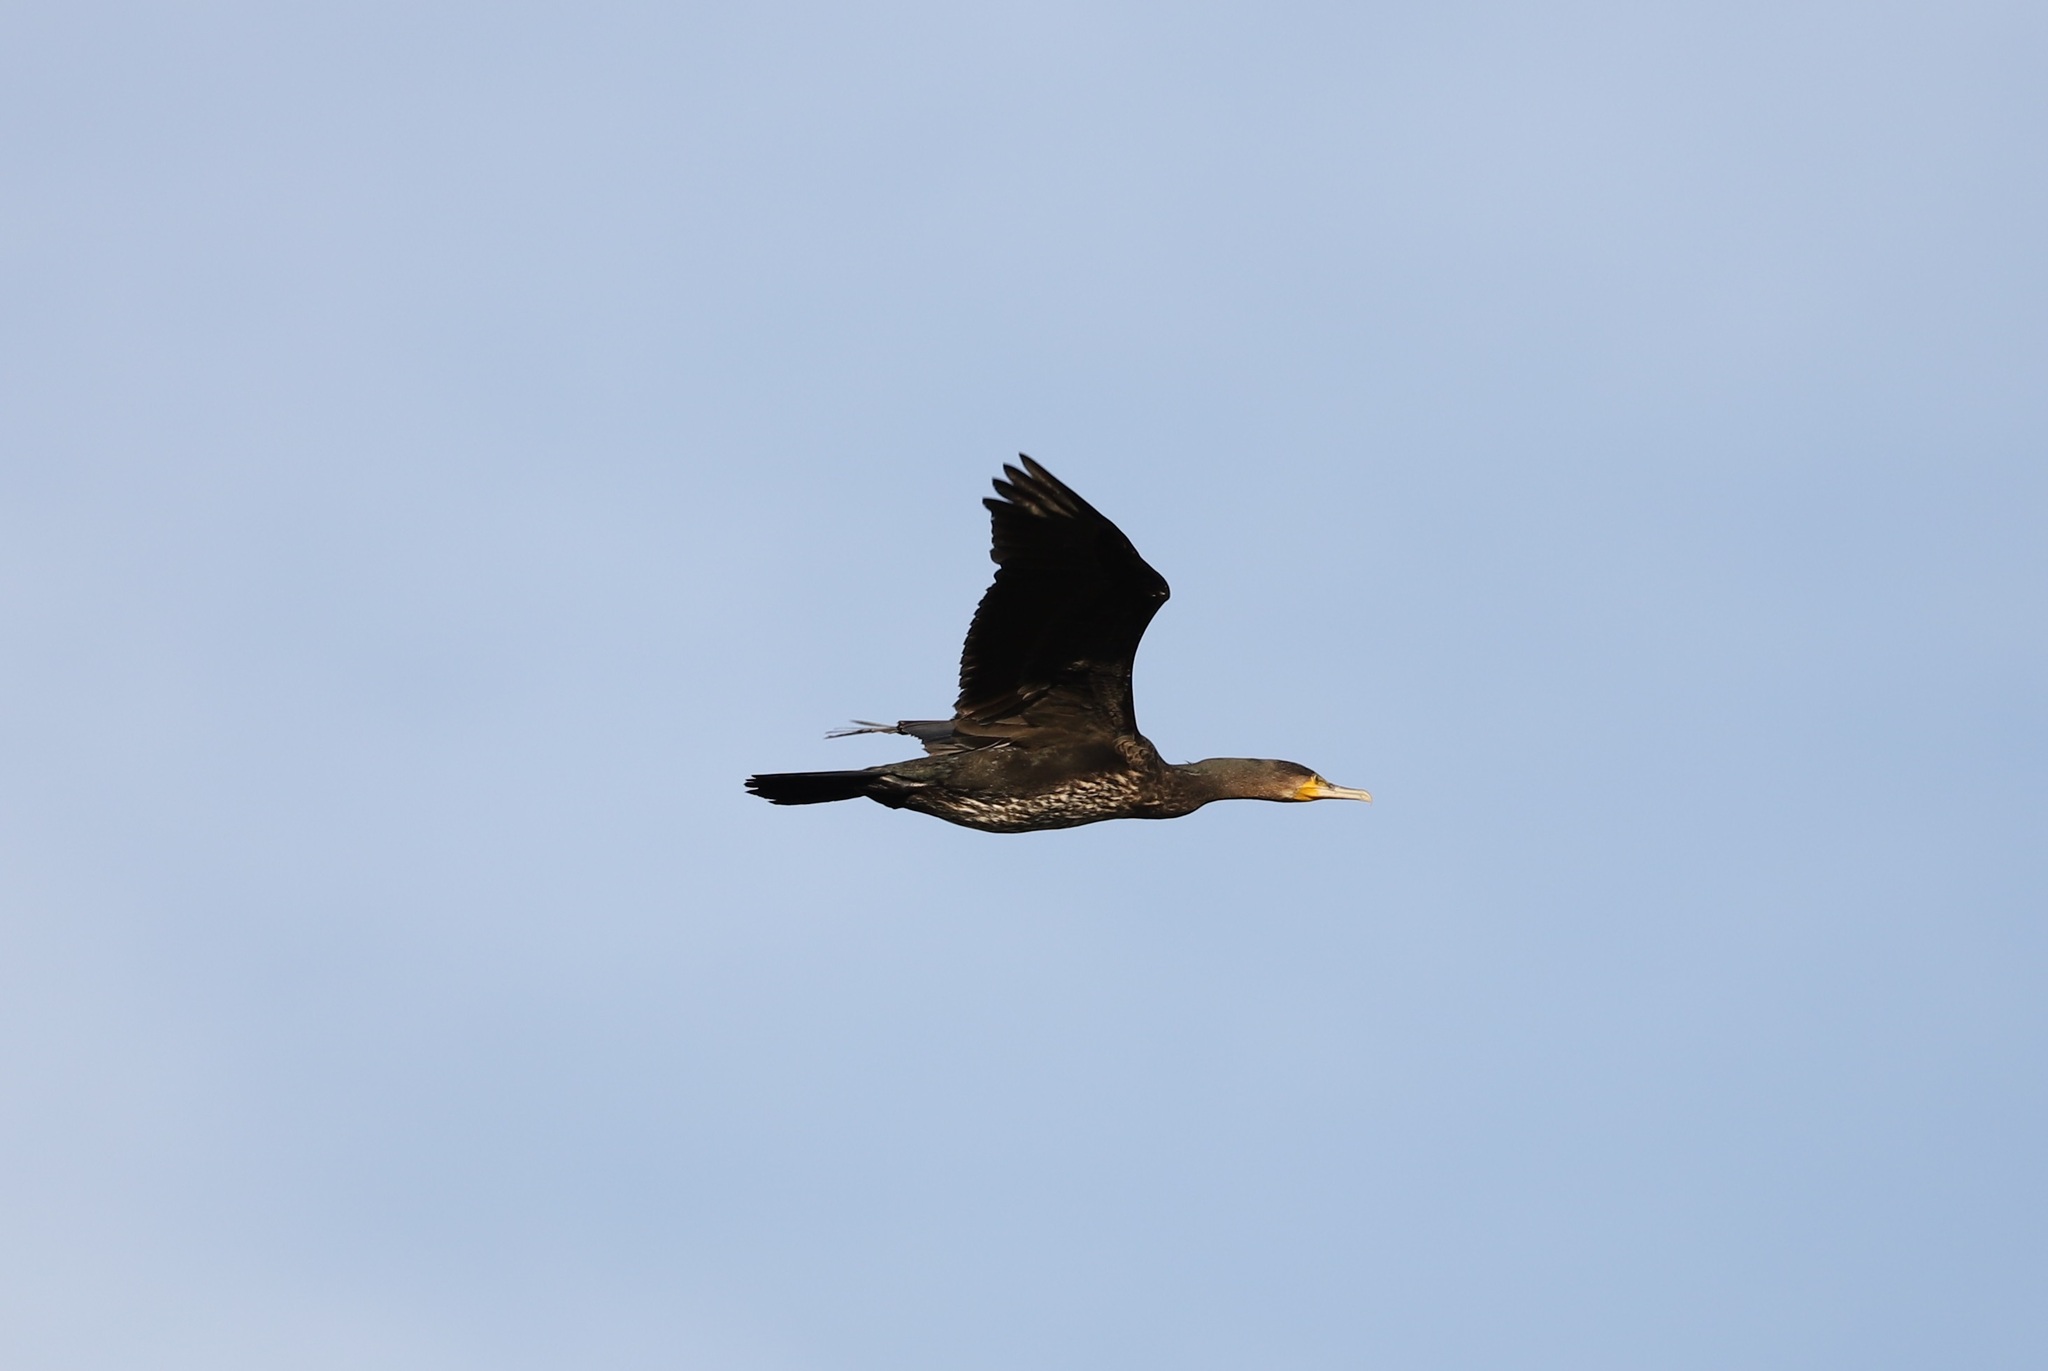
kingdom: Animalia
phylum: Chordata
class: Aves
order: Suliformes
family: Phalacrocoracidae
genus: Phalacrocorax
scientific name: Phalacrocorax carbo
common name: Great cormorant
